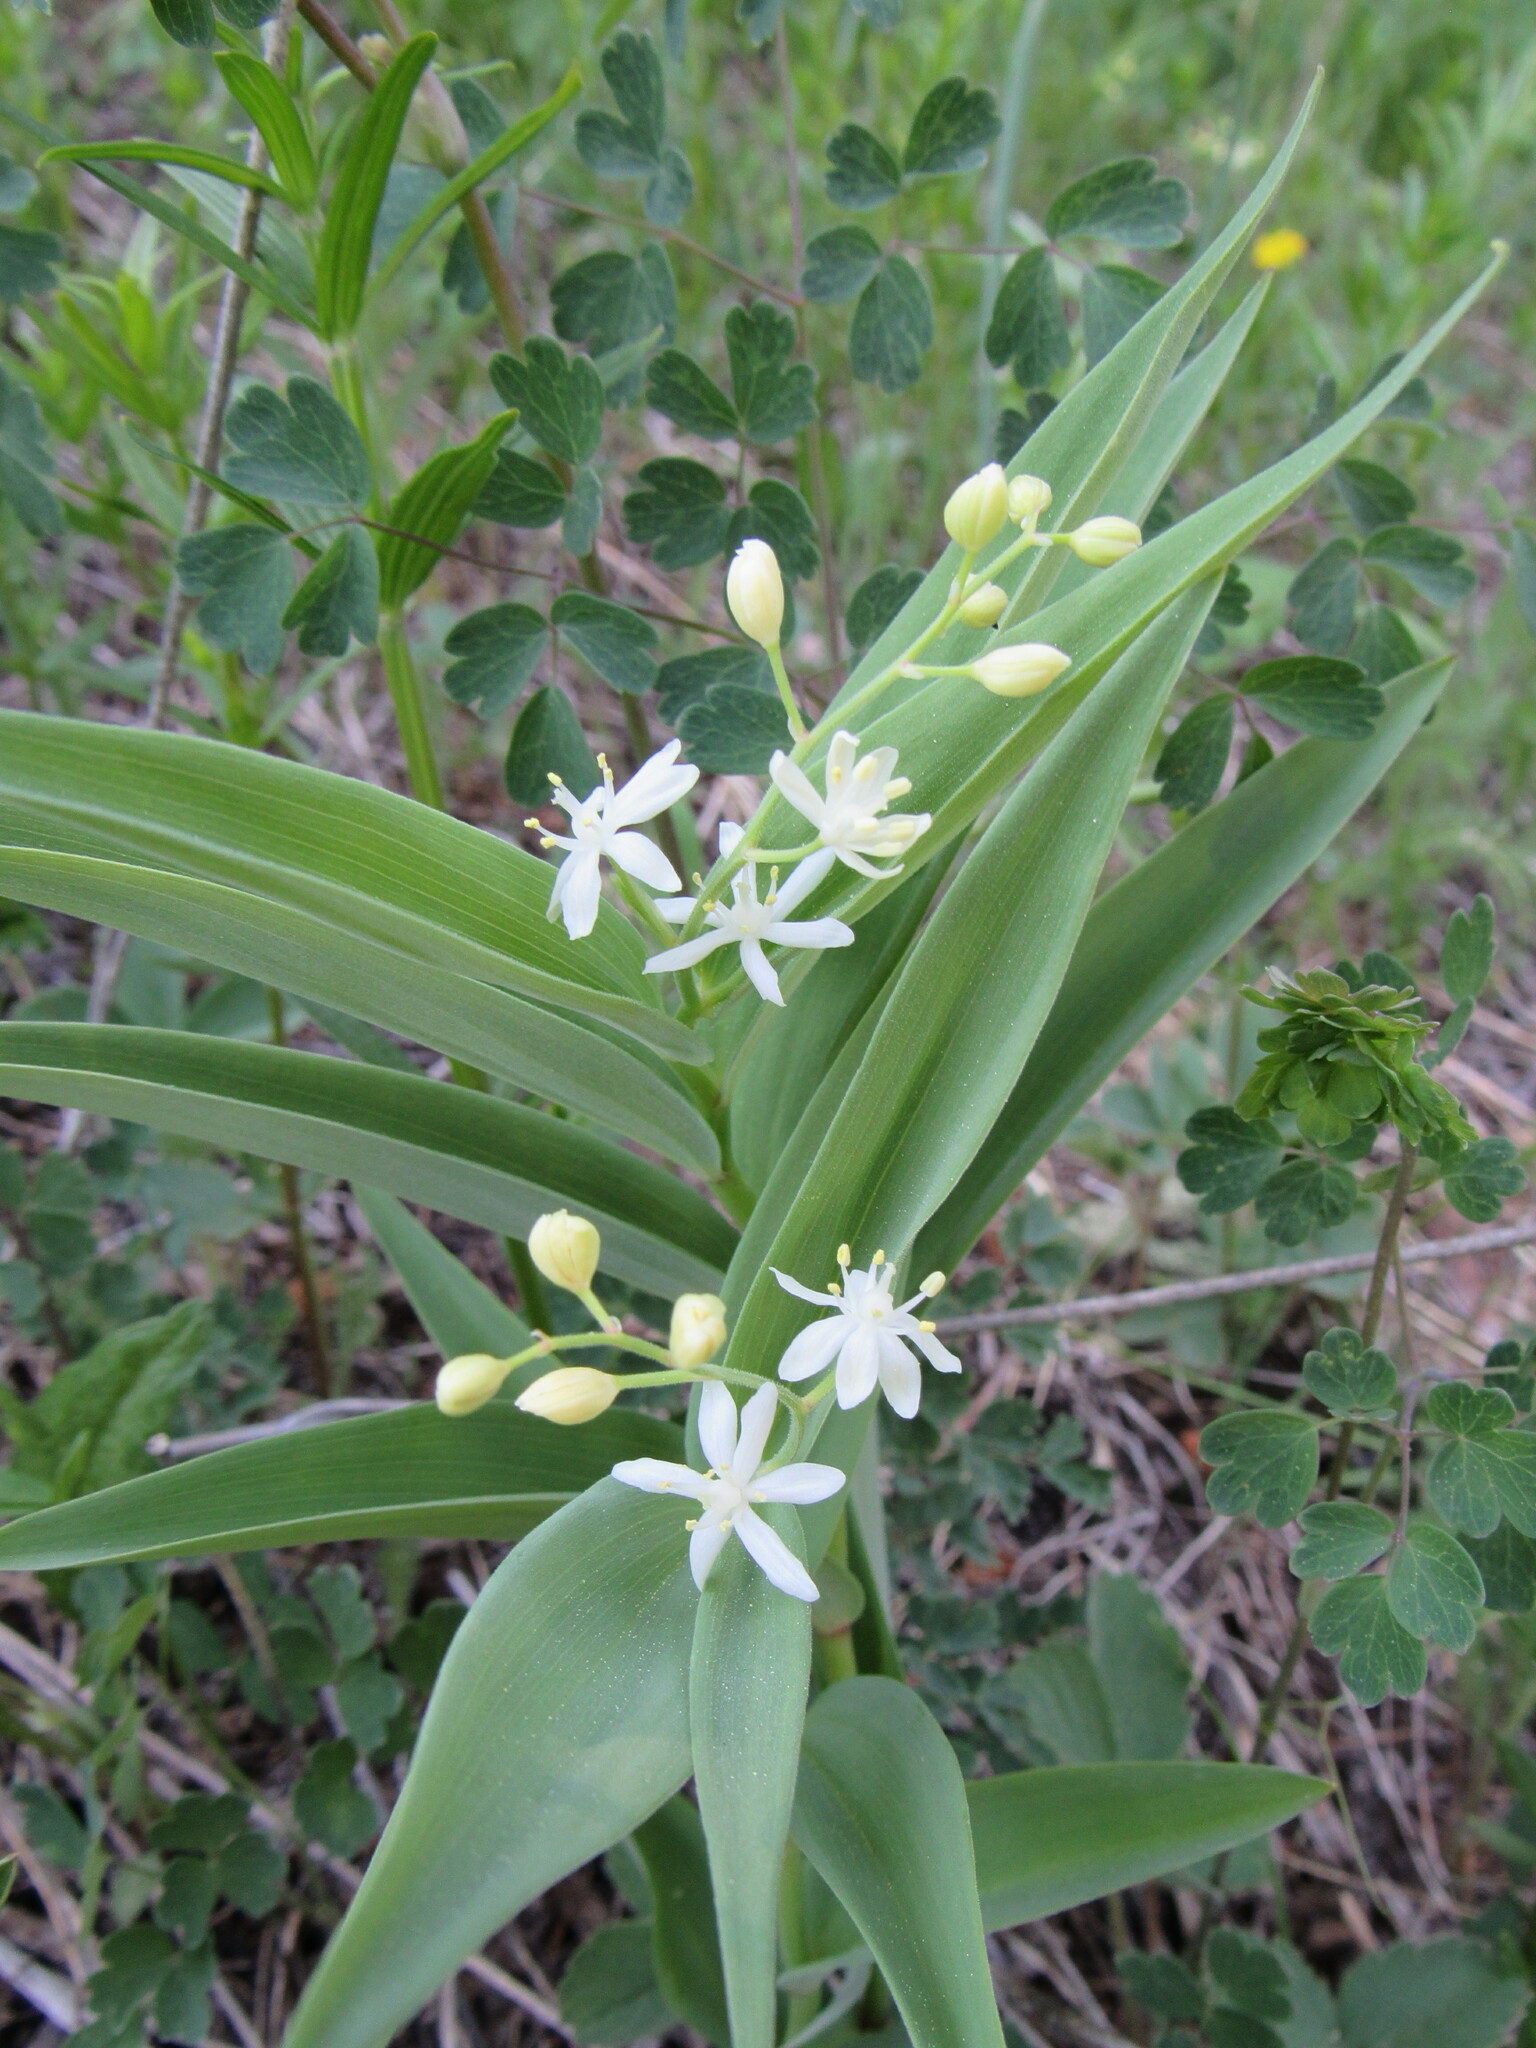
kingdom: Plantae
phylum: Tracheophyta
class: Liliopsida
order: Asparagales
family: Asparagaceae
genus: Maianthemum
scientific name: Maianthemum stellatum
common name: Little false solomon's seal
